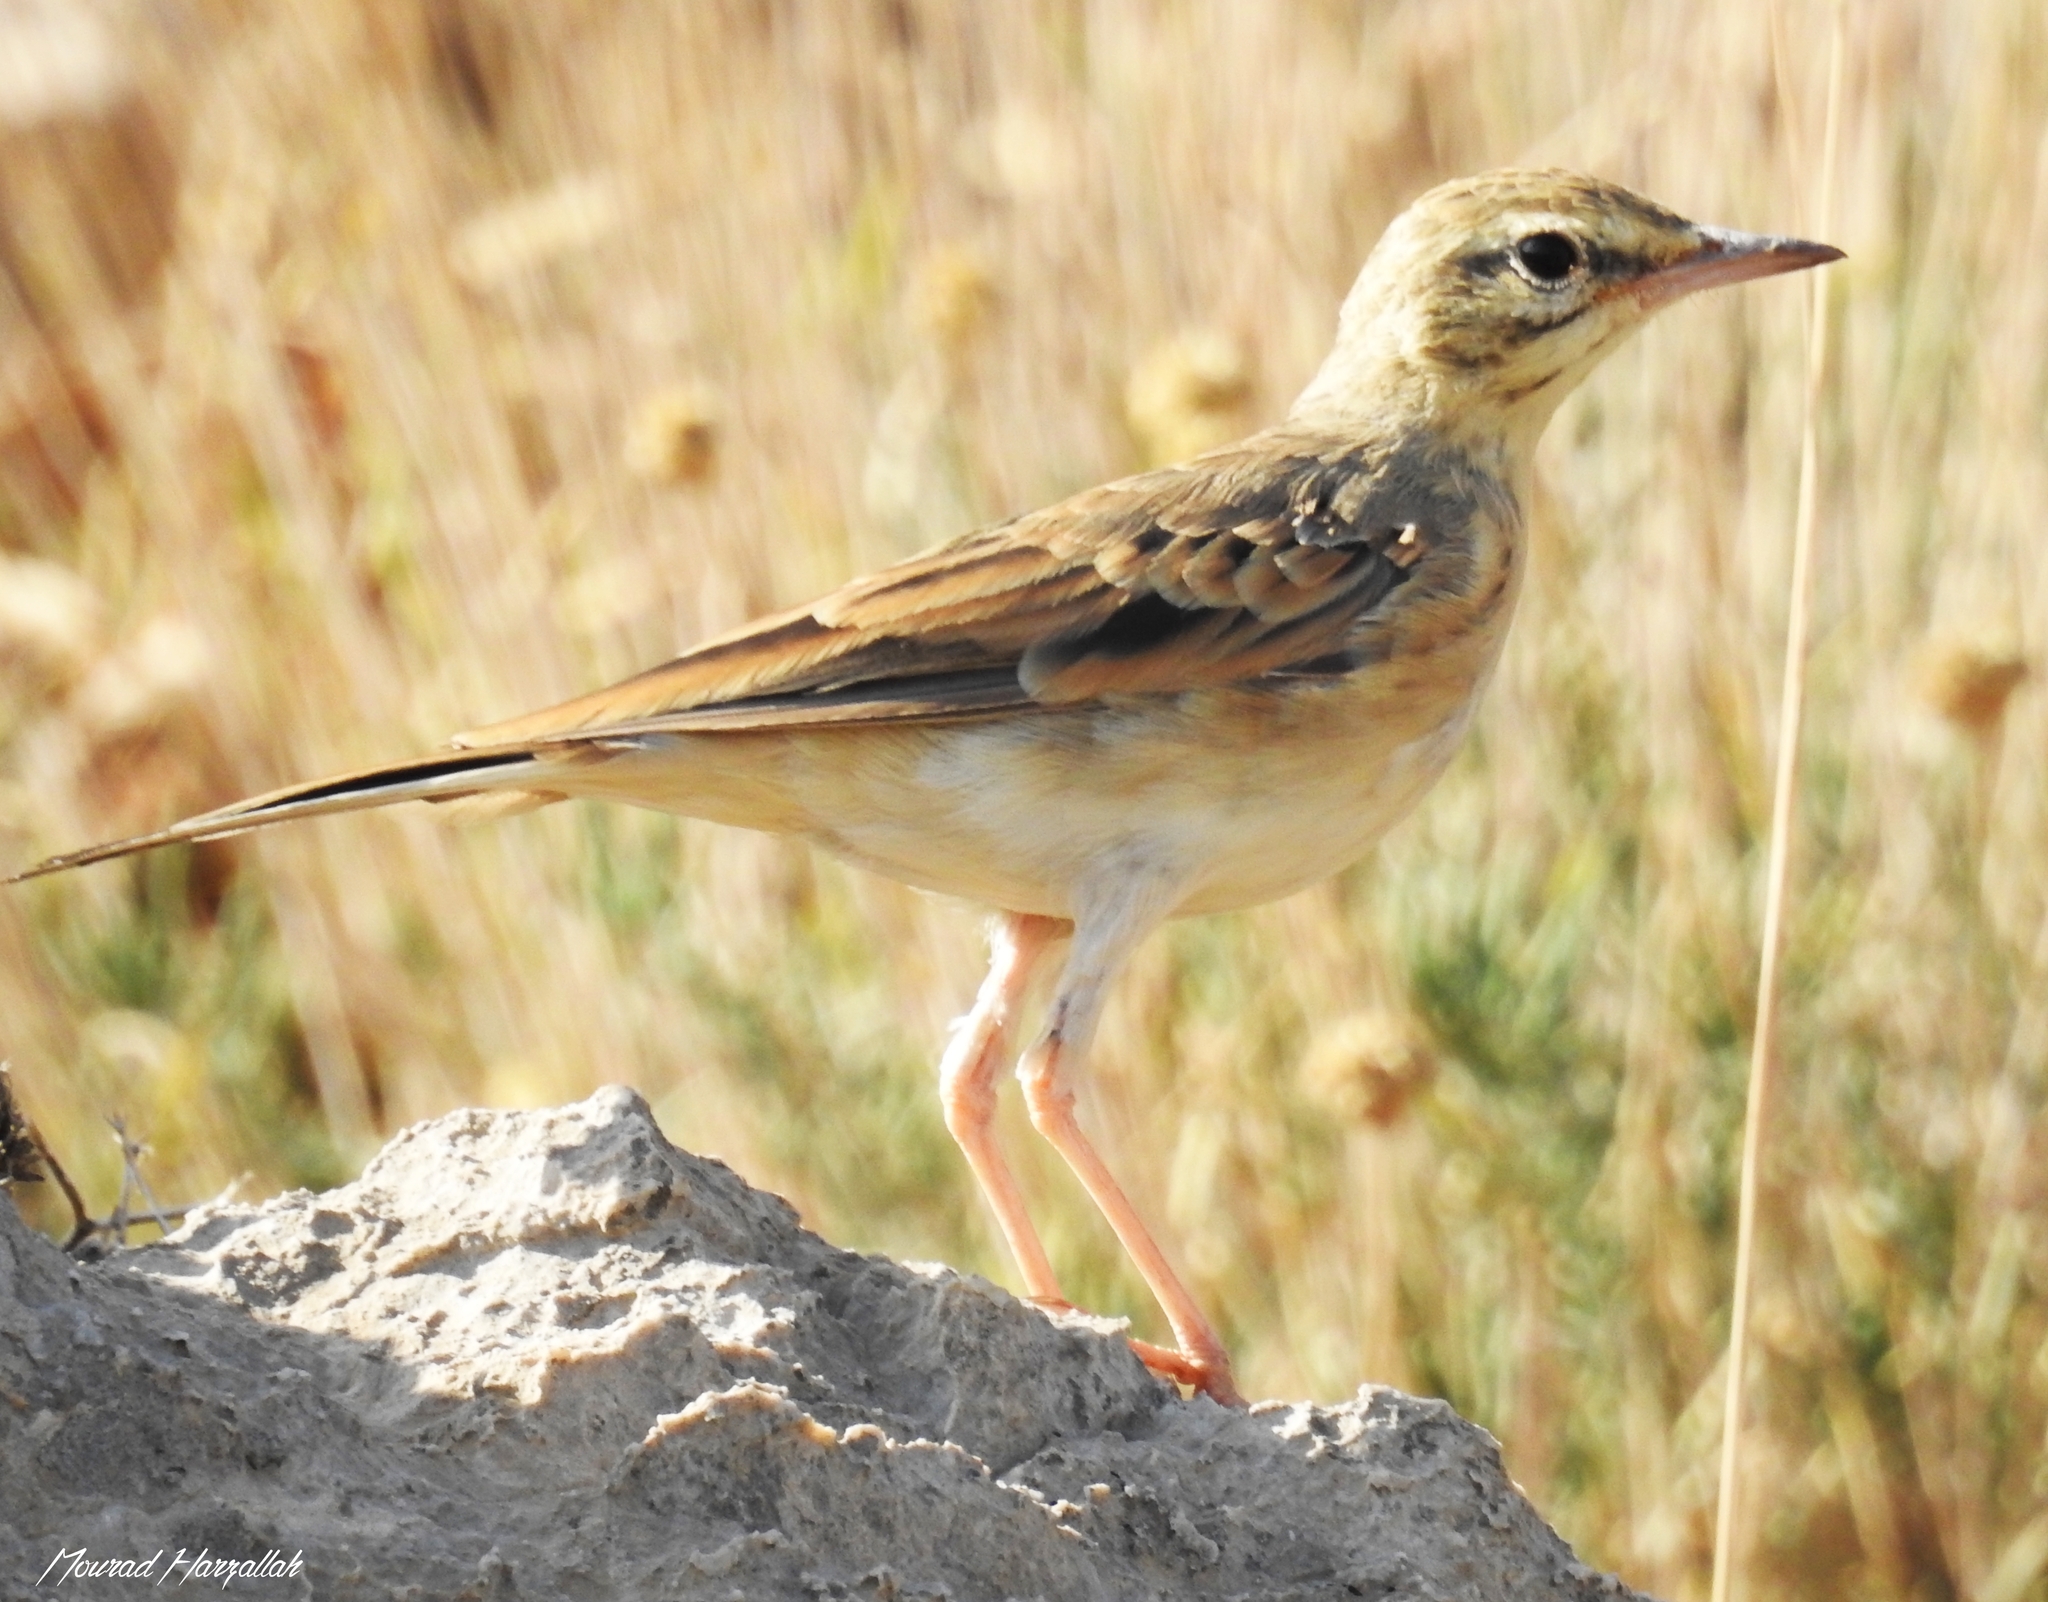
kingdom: Animalia
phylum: Chordata
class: Aves
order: Passeriformes
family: Motacillidae
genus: Anthus
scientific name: Anthus campestris
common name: Tawny pipit
